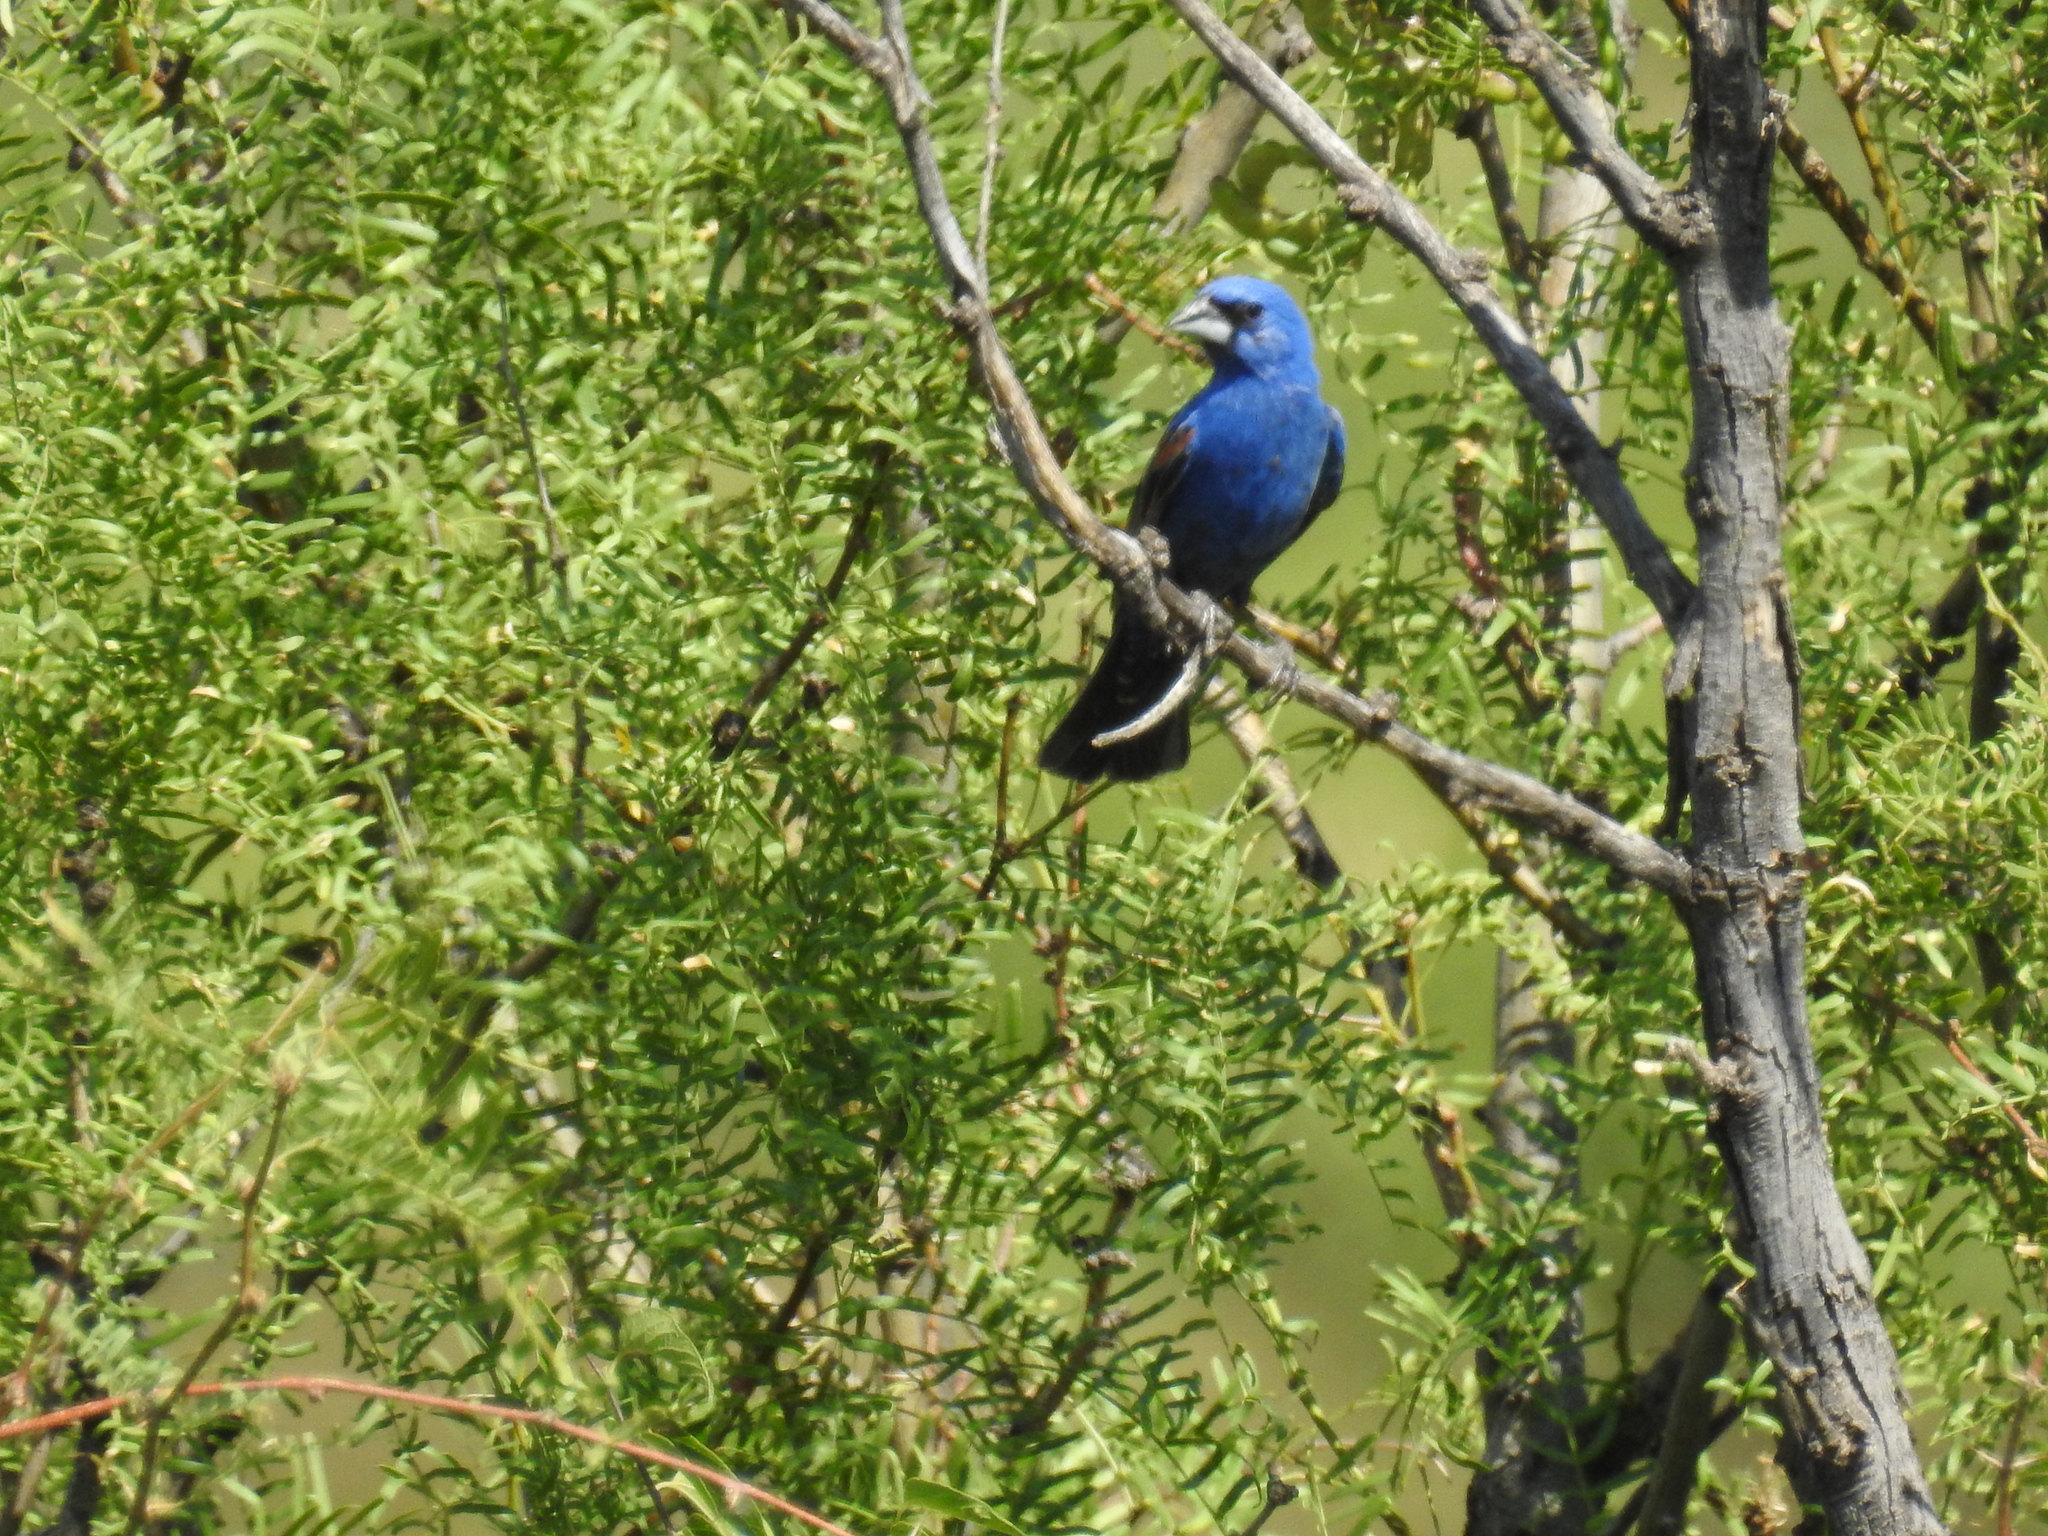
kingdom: Animalia
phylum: Chordata
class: Aves
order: Passeriformes
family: Cardinalidae
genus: Passerina
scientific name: Passerina caerulea
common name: Blue grosbeak
